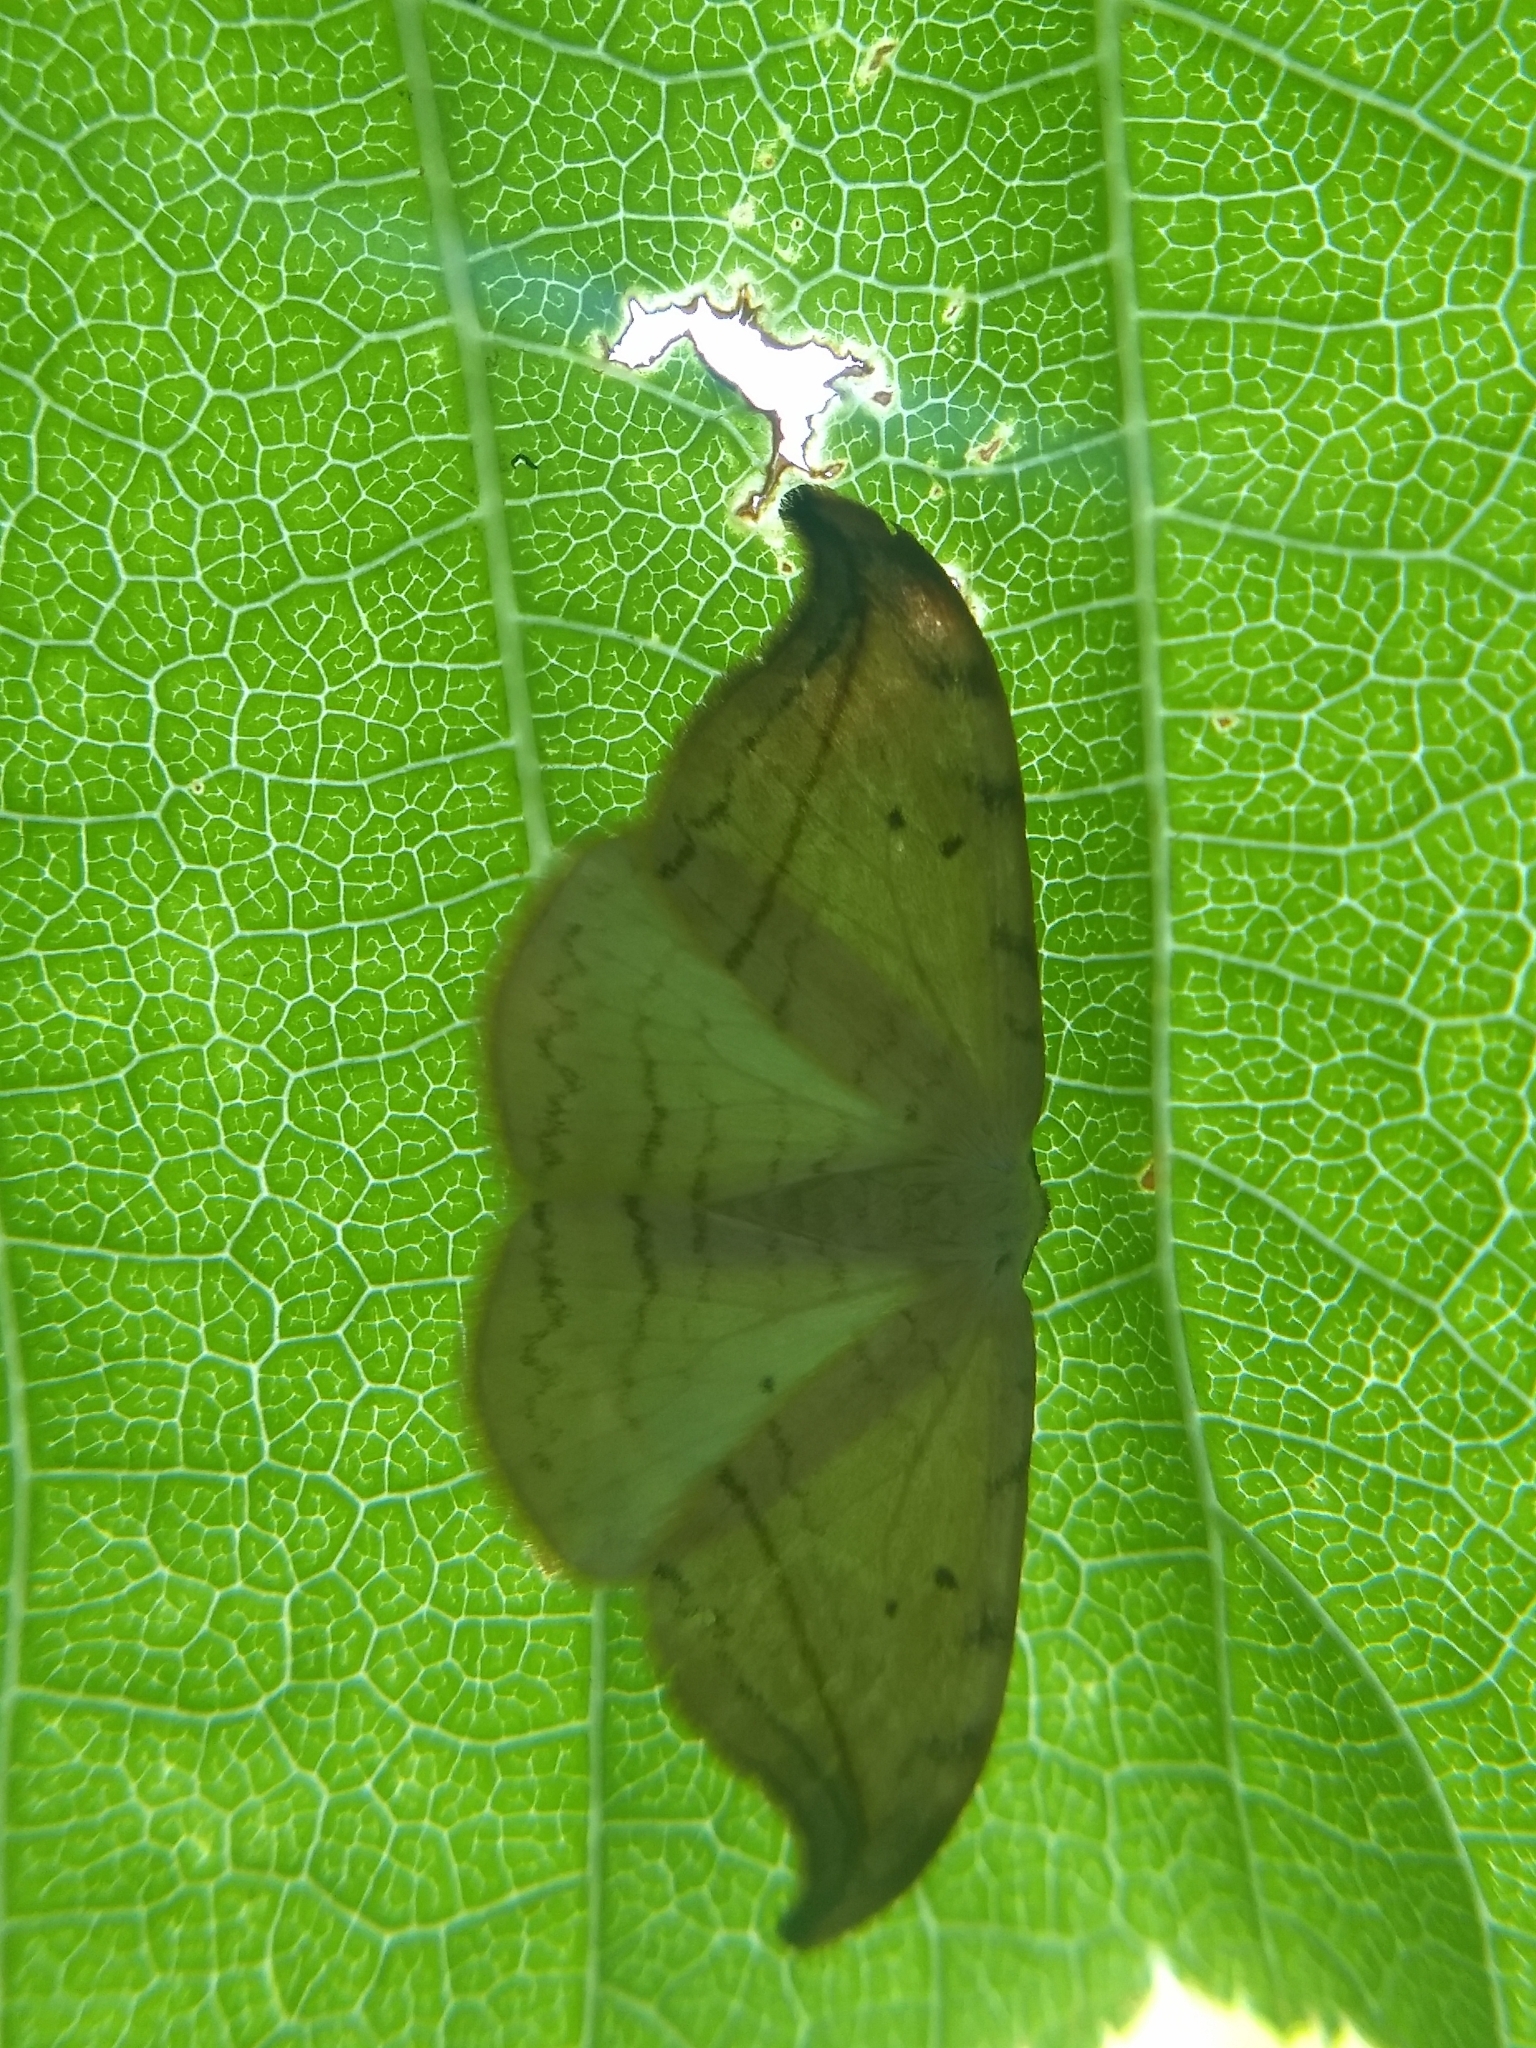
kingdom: Animalia
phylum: Arthropoda
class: Insecta
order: Lepidoptera
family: Drepanidae
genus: Drepana
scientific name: Drepana arcuata
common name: Arched hooktip moth
